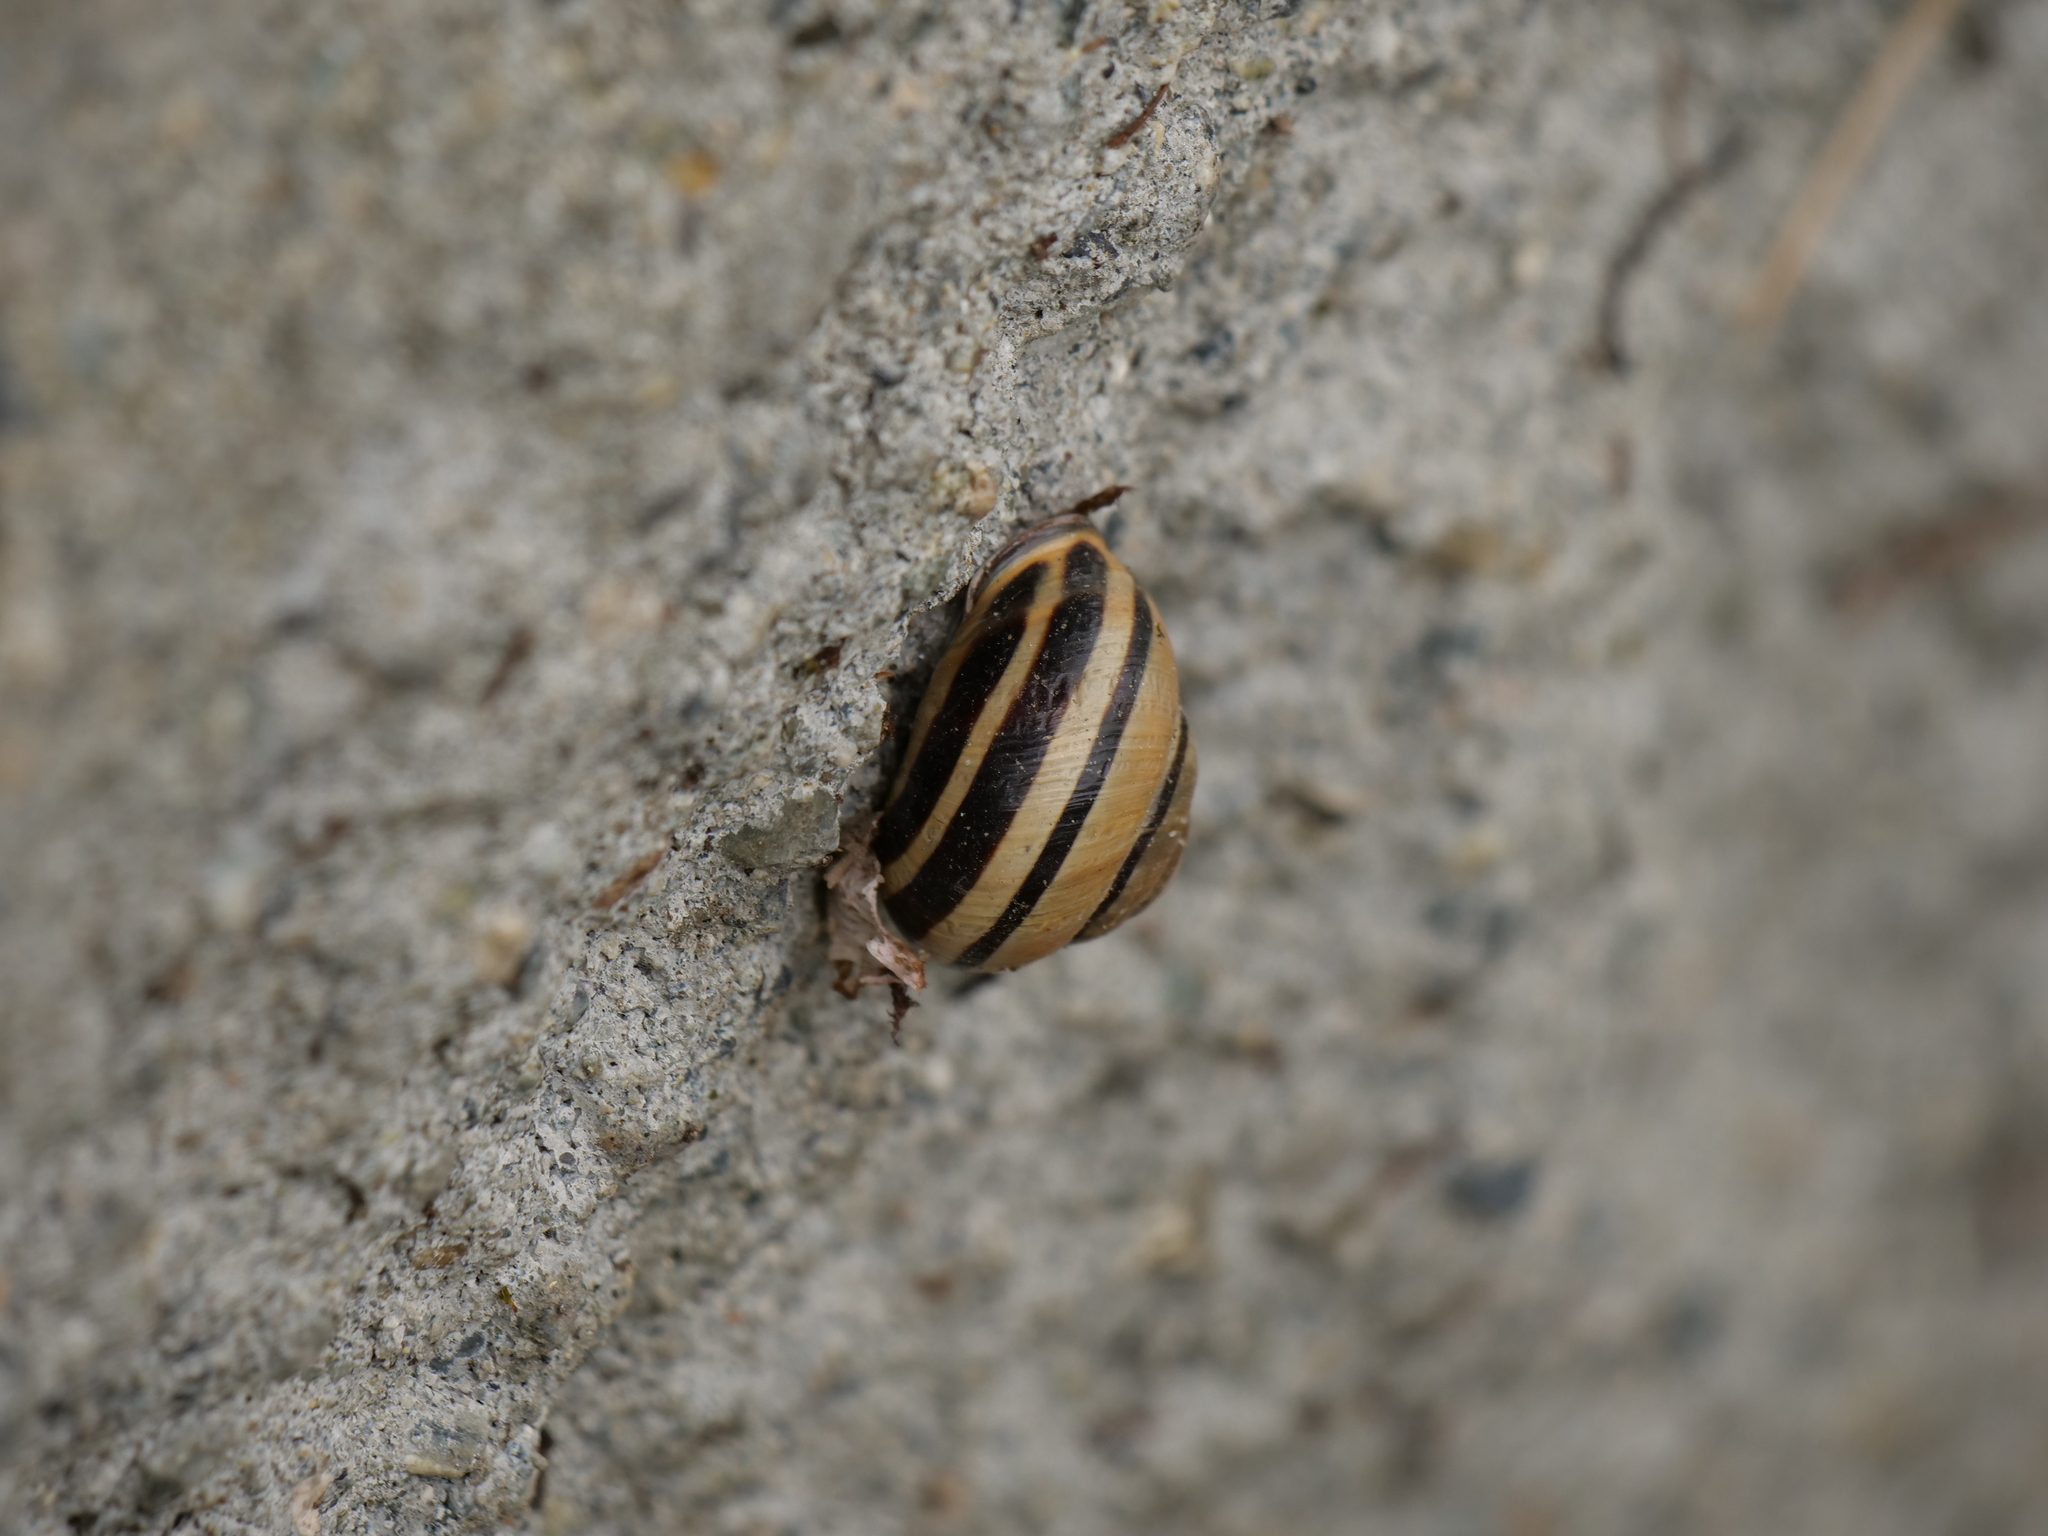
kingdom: Animalia
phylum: Mollusca
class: Gastropoda
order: Stylommatophora
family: Helicidae
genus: Cepaea
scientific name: Cepaea nemoralis
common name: Grovesnail
